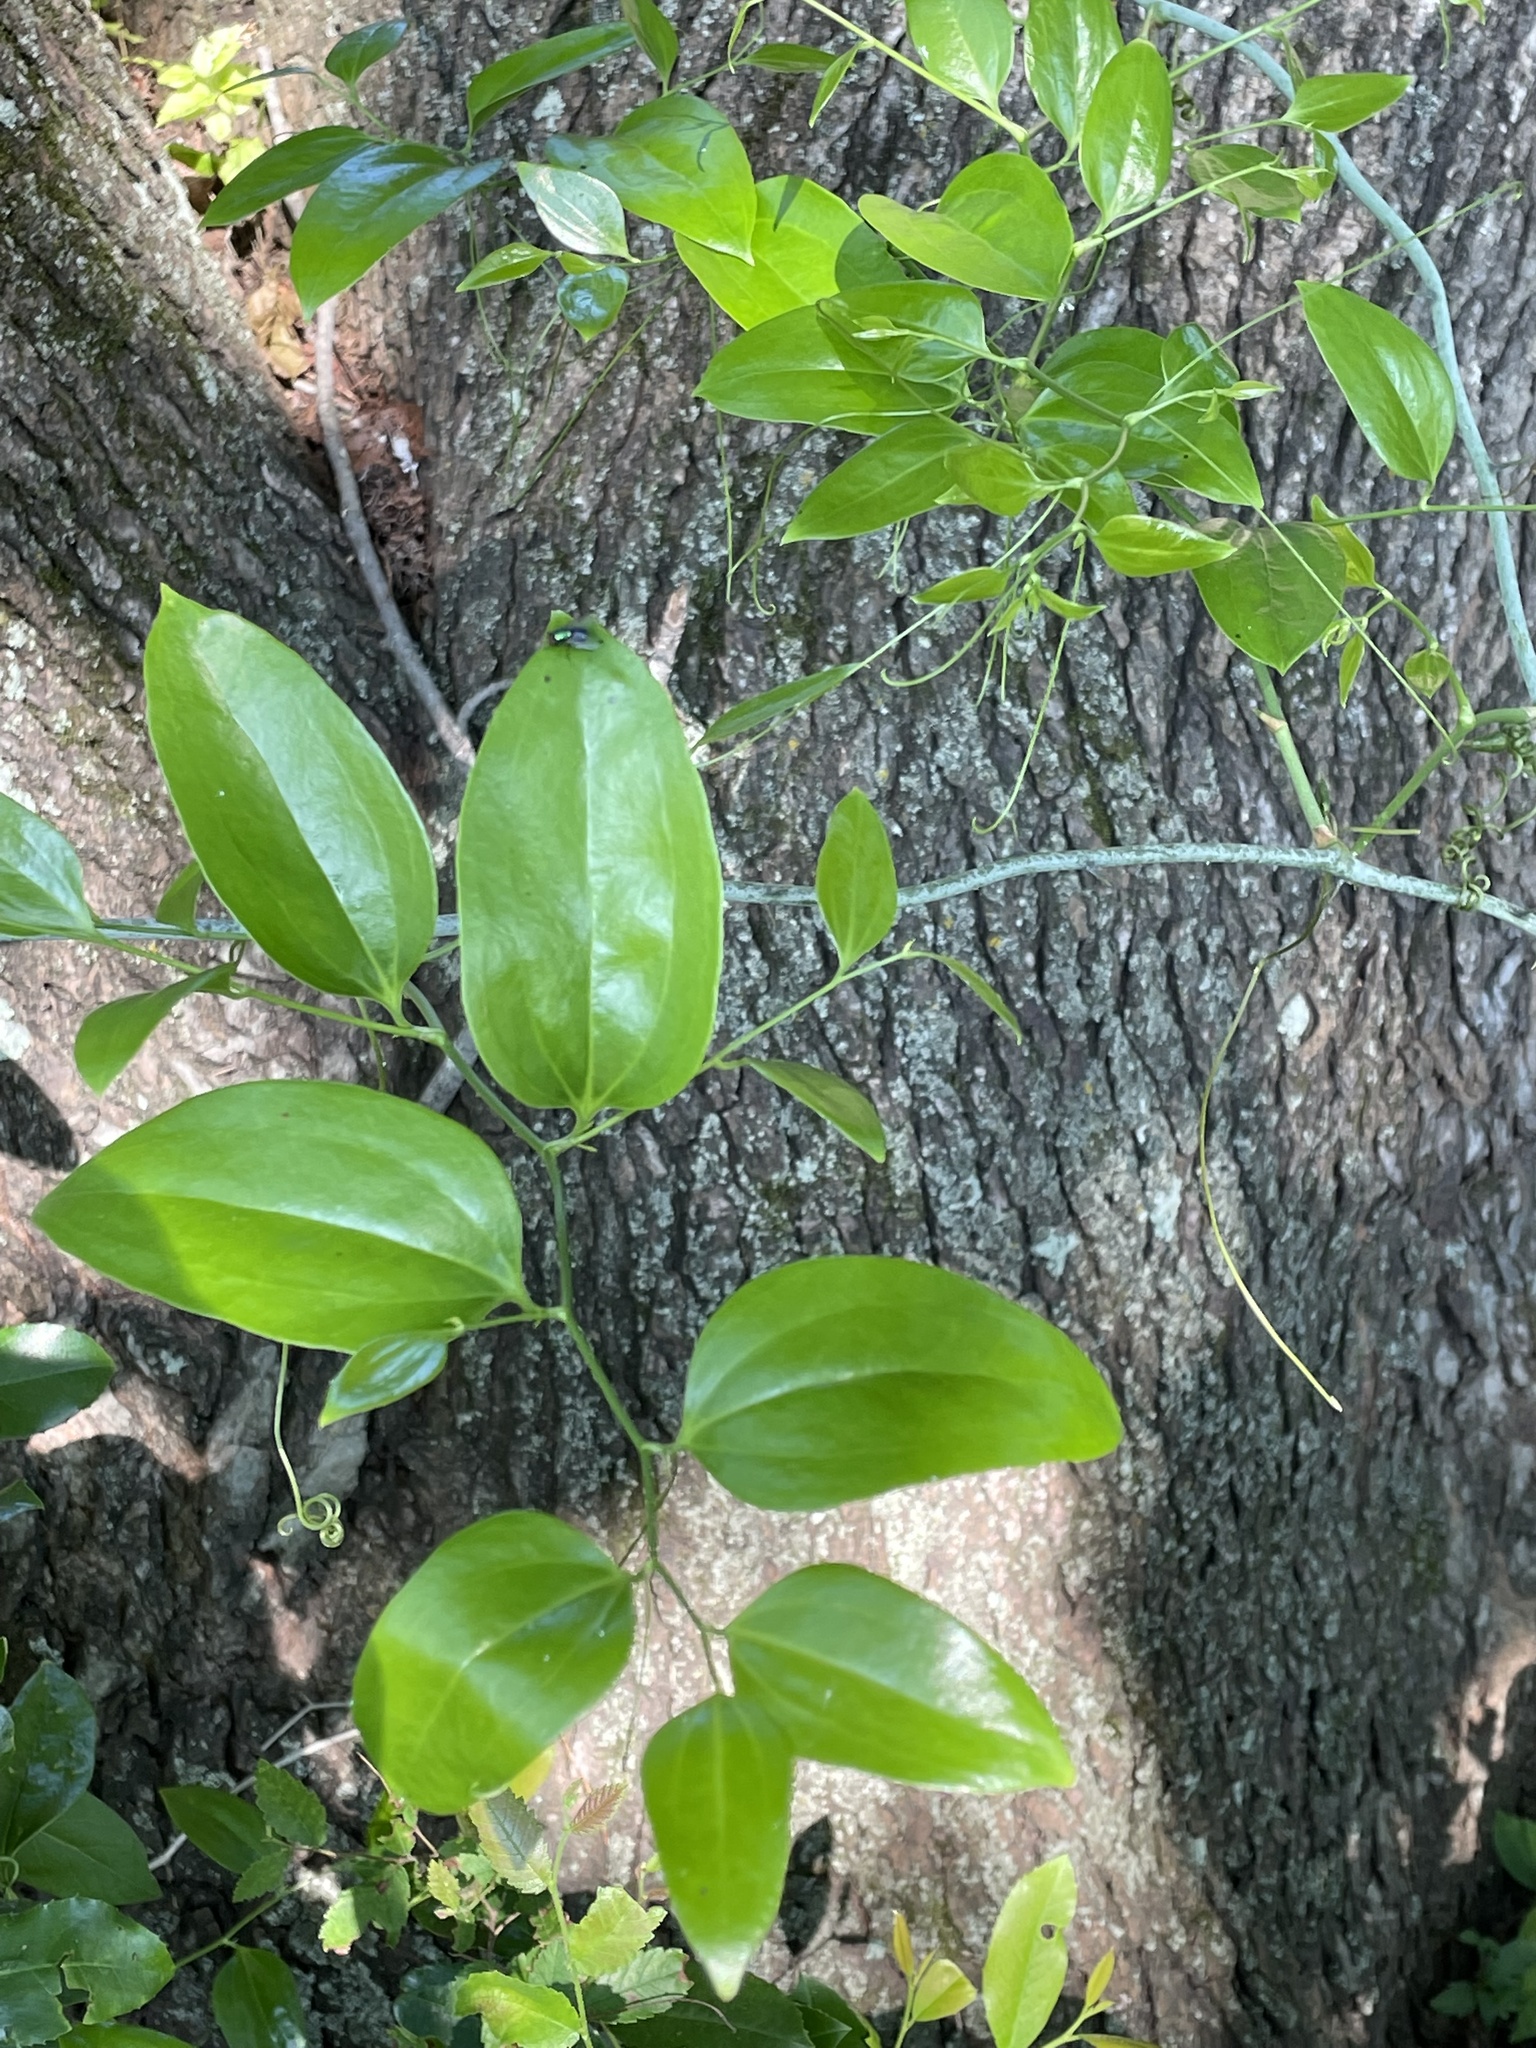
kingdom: Plantae
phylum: Tracheophyta
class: Liliopsida
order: Liliales
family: Smilacaceae
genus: Smilax
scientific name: Smilax maritima
